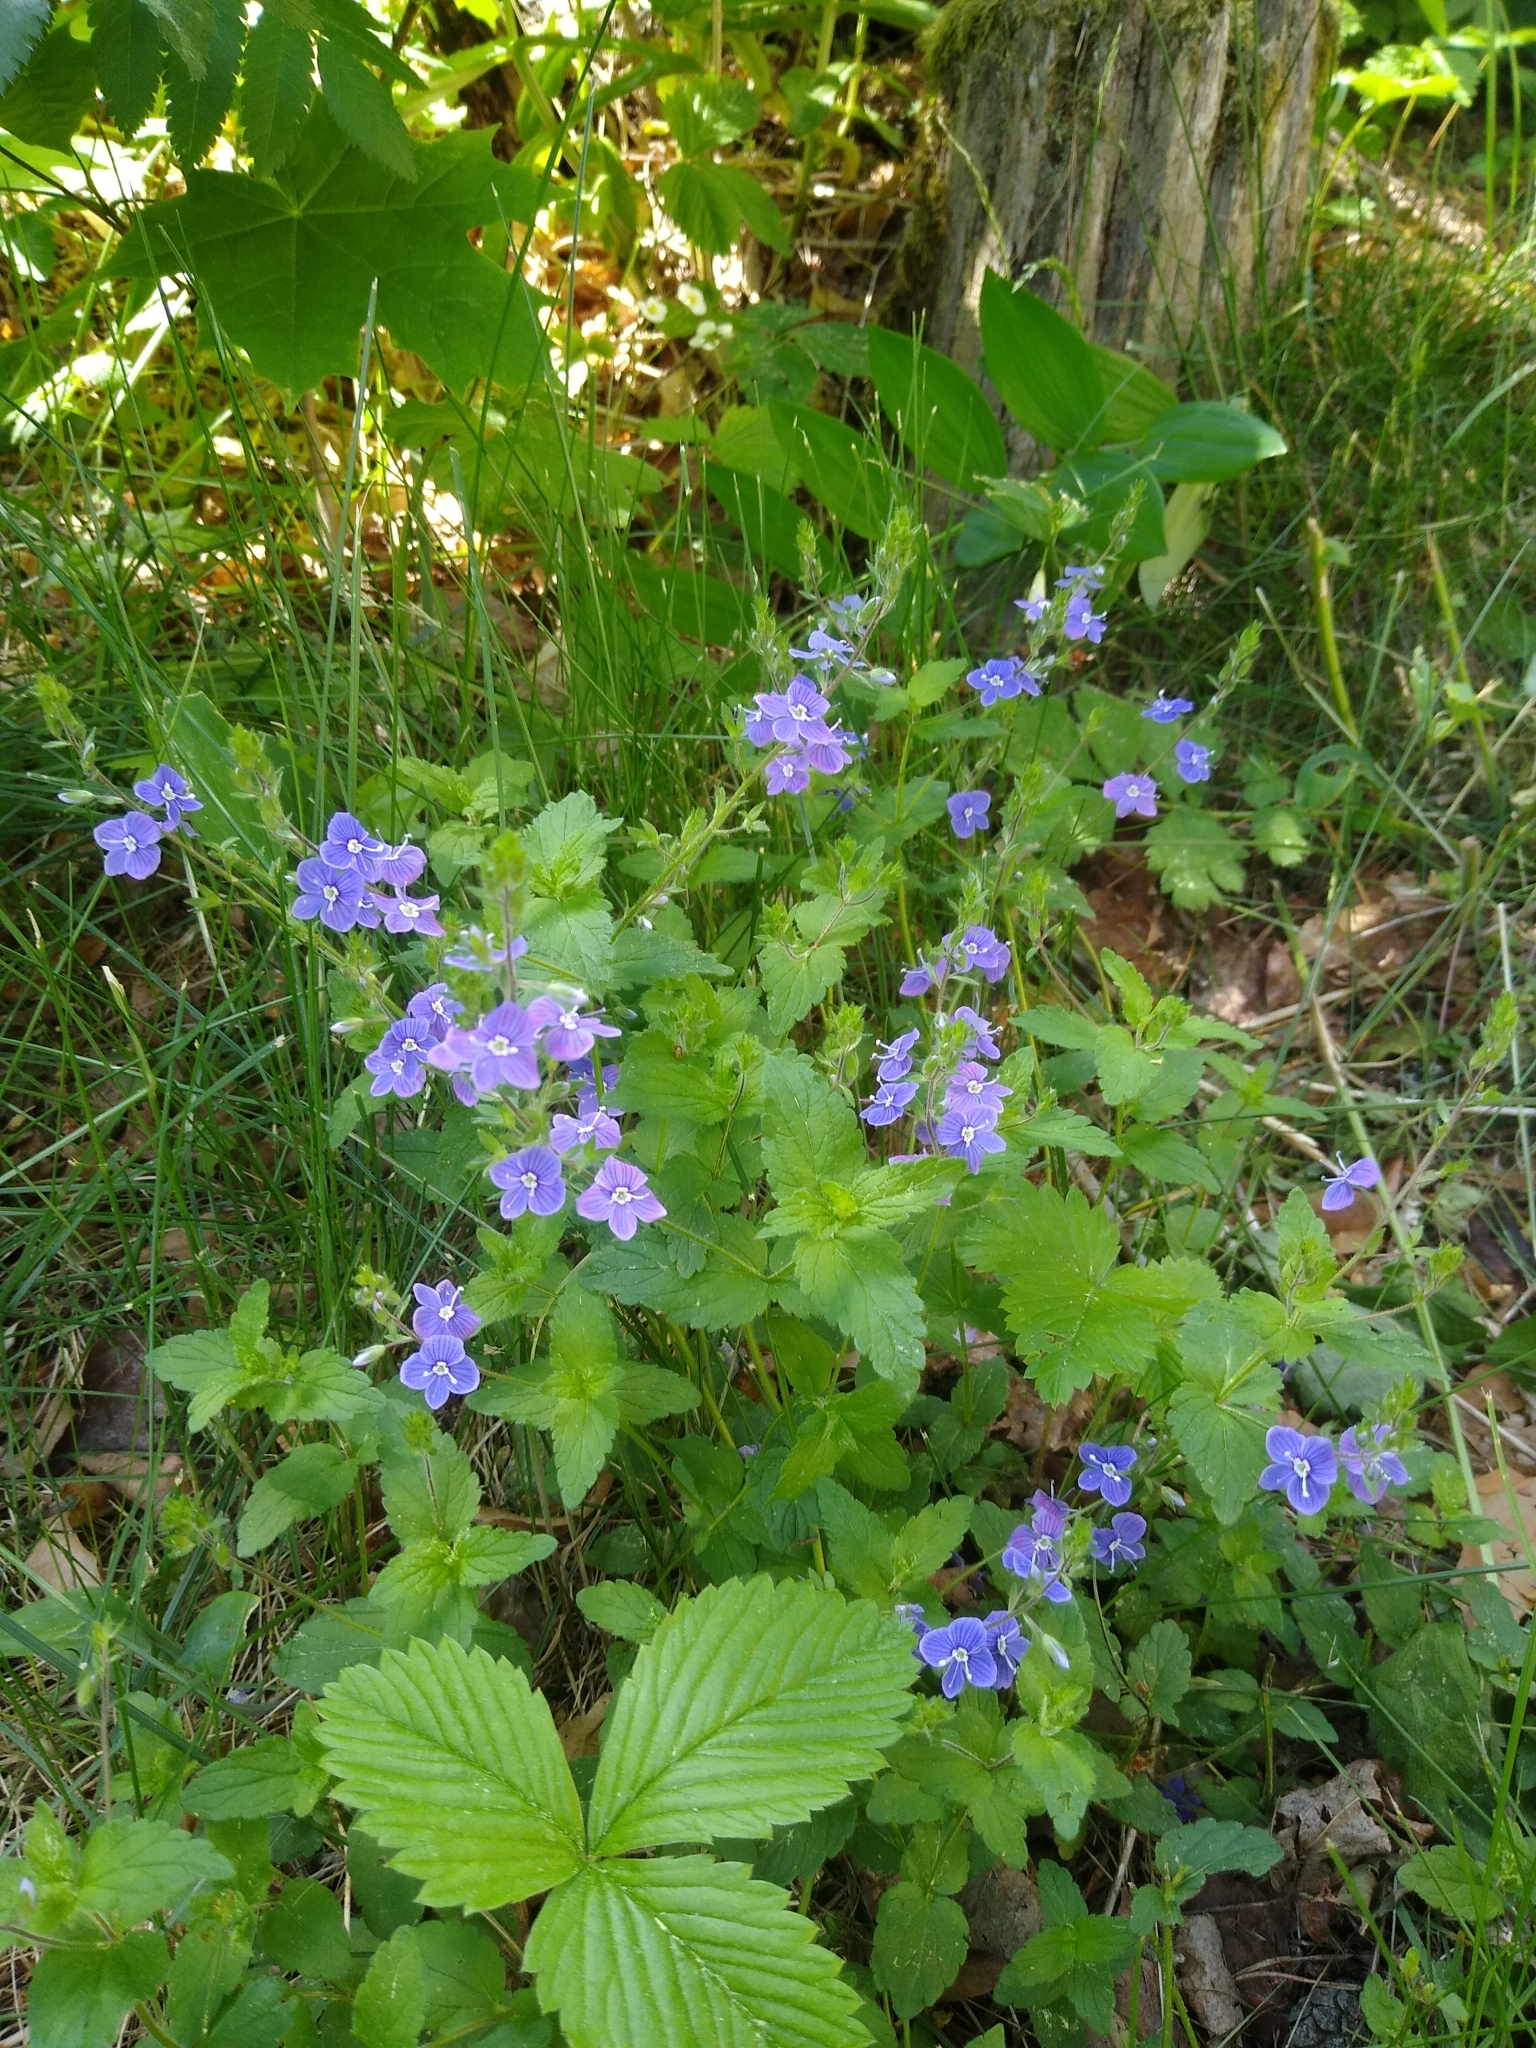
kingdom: Plantae
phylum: Tracheophyta
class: Magnoliopsida
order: Lamiales
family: Plantaginaceae
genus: Veronica
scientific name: Veronica chamaedrys
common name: Germander speedwell
